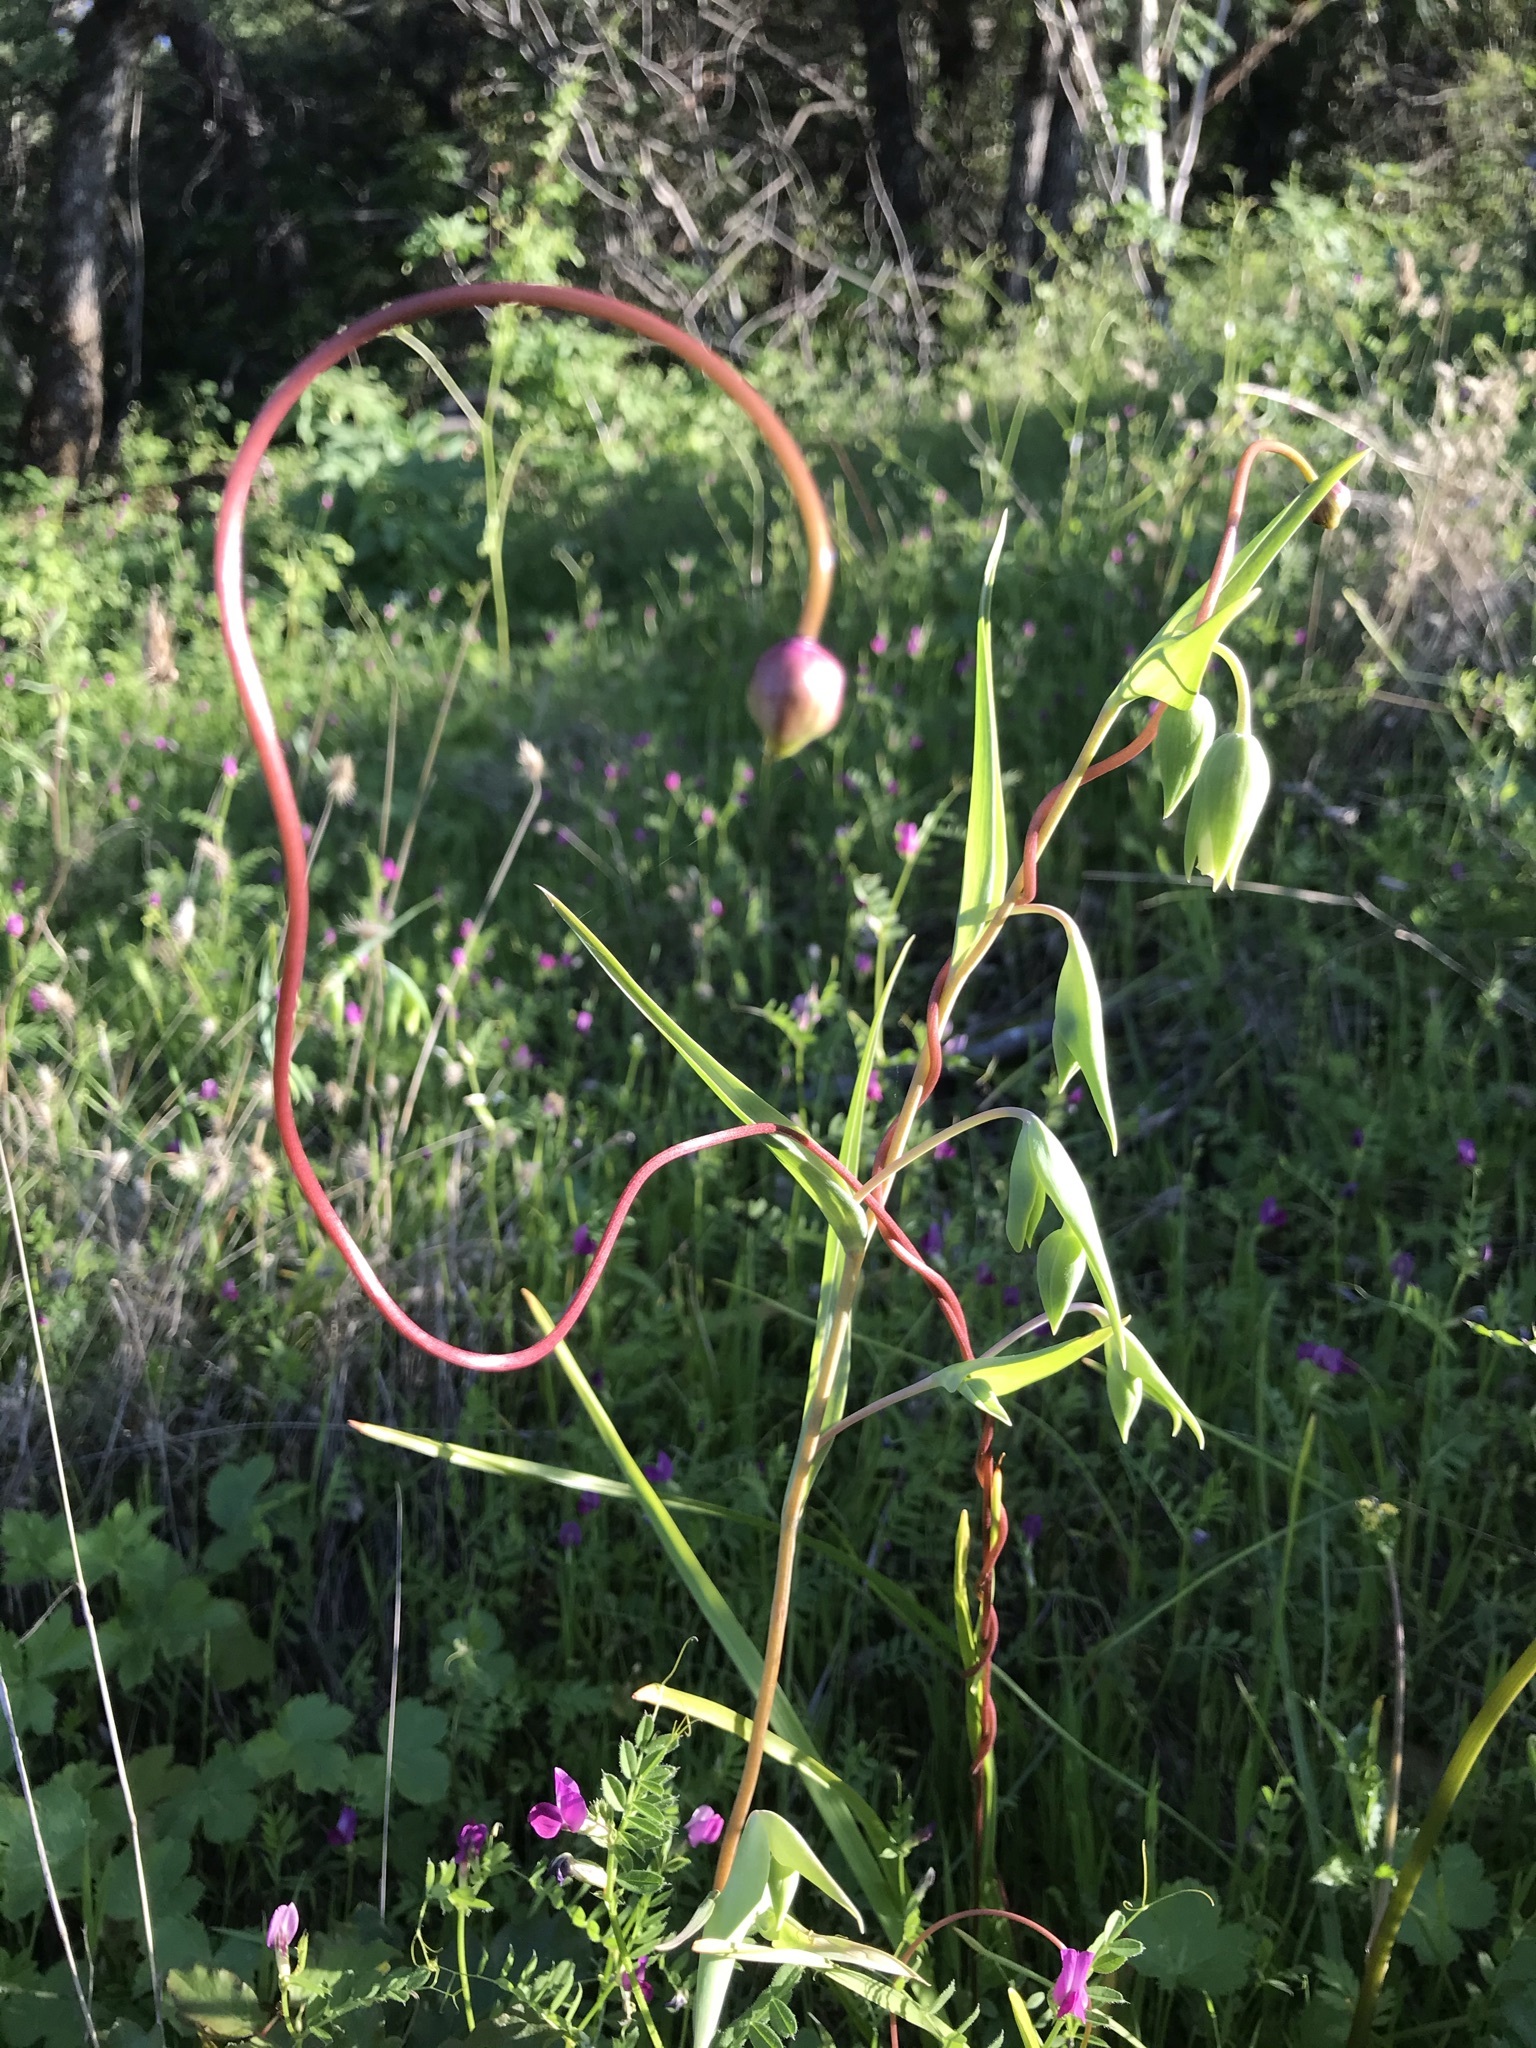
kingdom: Plantae
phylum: Tracheophyta
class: Liliopsida
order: Asparagales
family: Asparagaceae
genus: Dichelostemma
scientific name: Dichelostemma volubile
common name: Trining brodiaea
